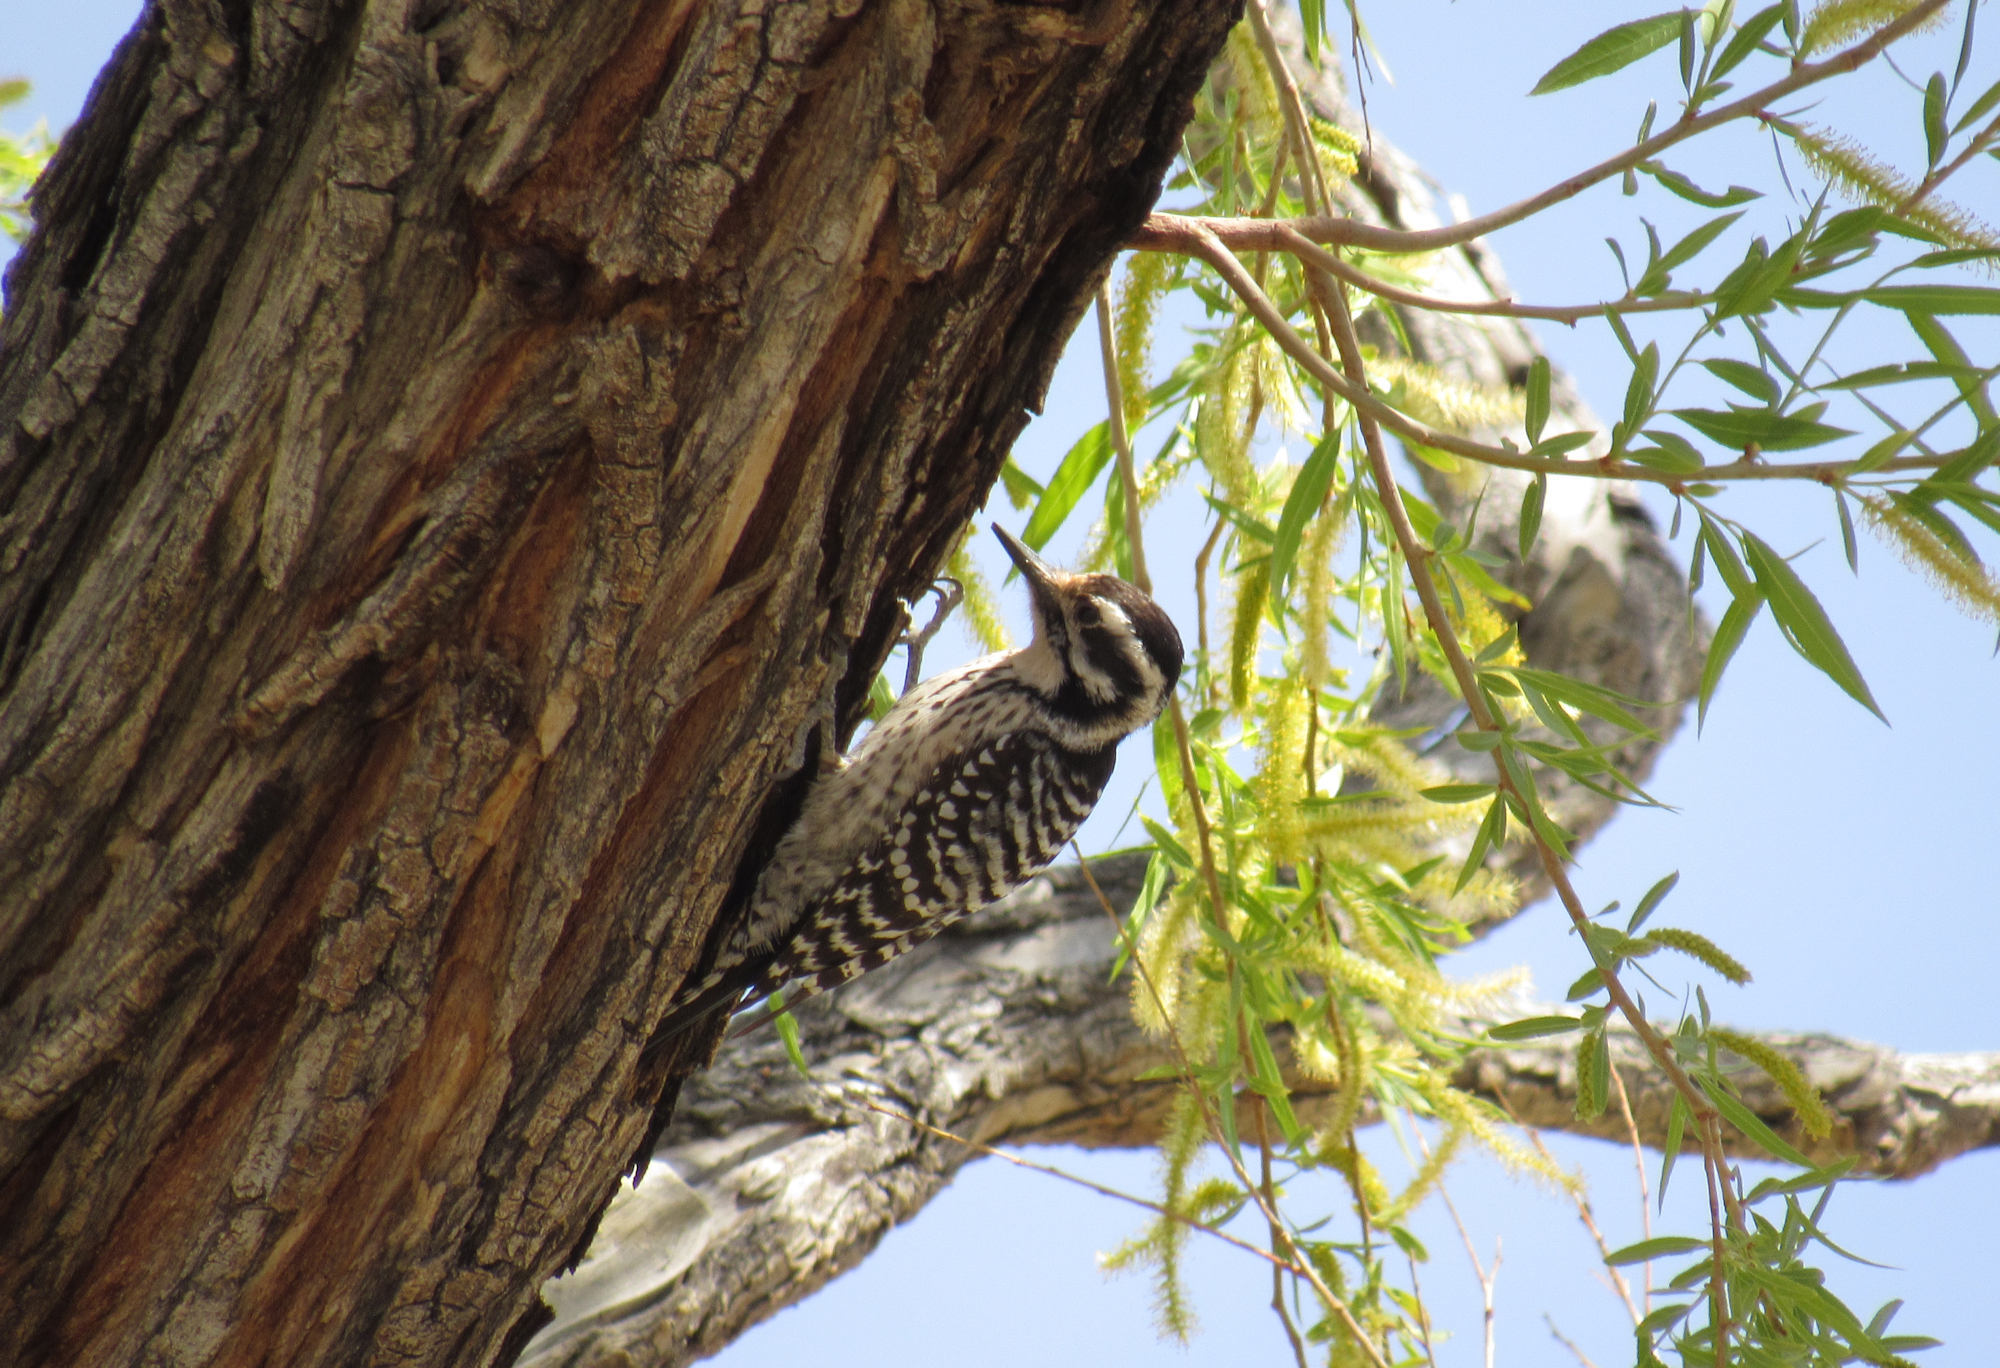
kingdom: Animalia
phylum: Chordata
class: Aves
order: Piciformes
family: Picidae
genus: Dryobates
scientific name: Dryobates scalaris
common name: Ladder-backed woodpecker
